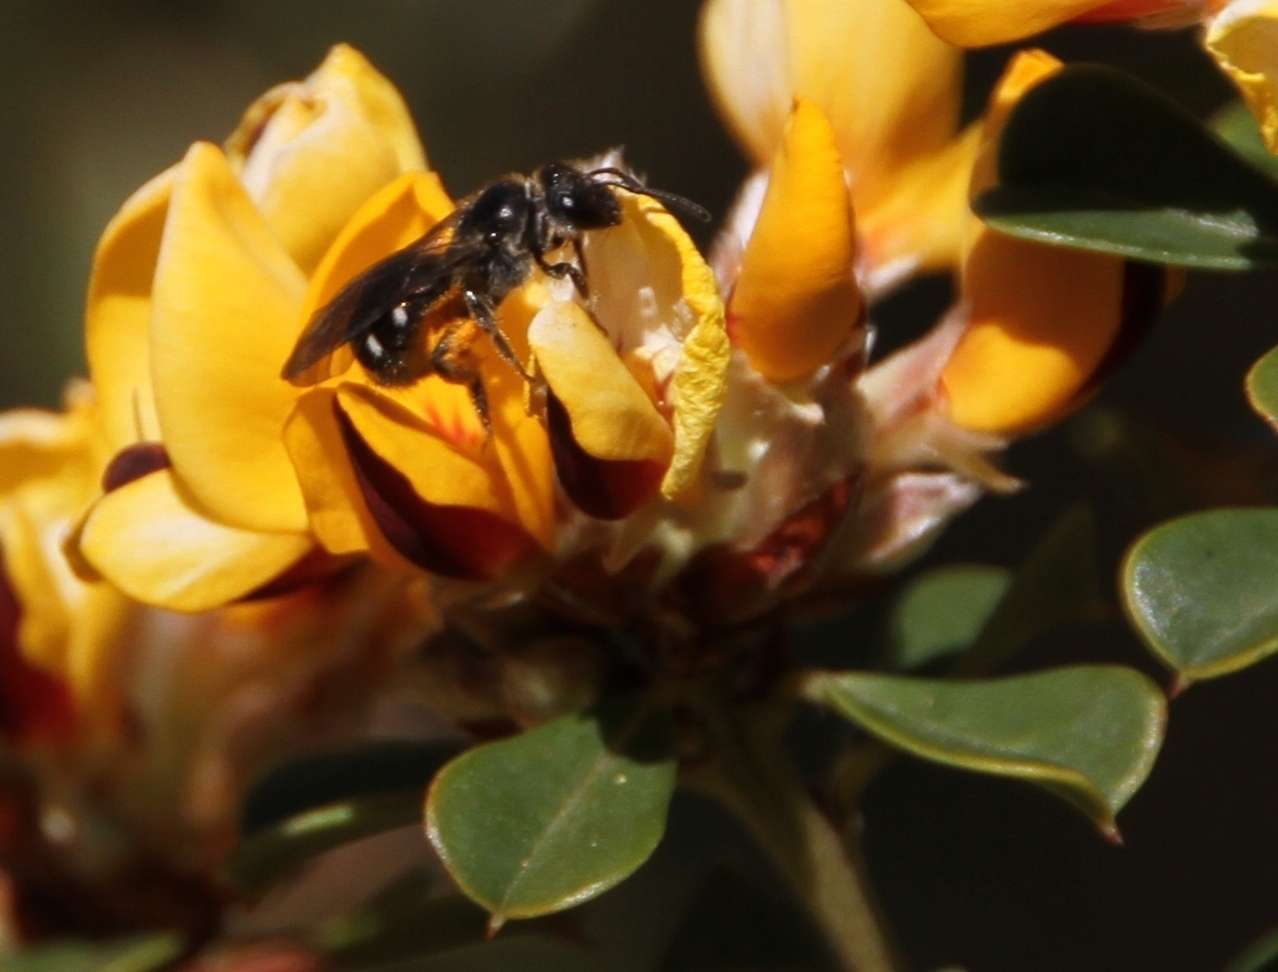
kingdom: Plantae
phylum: Tracheophyta
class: Magnoliopsida
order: Fabales
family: Fabaceae
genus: Pultenaea
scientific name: Pultenaea daphnoides
